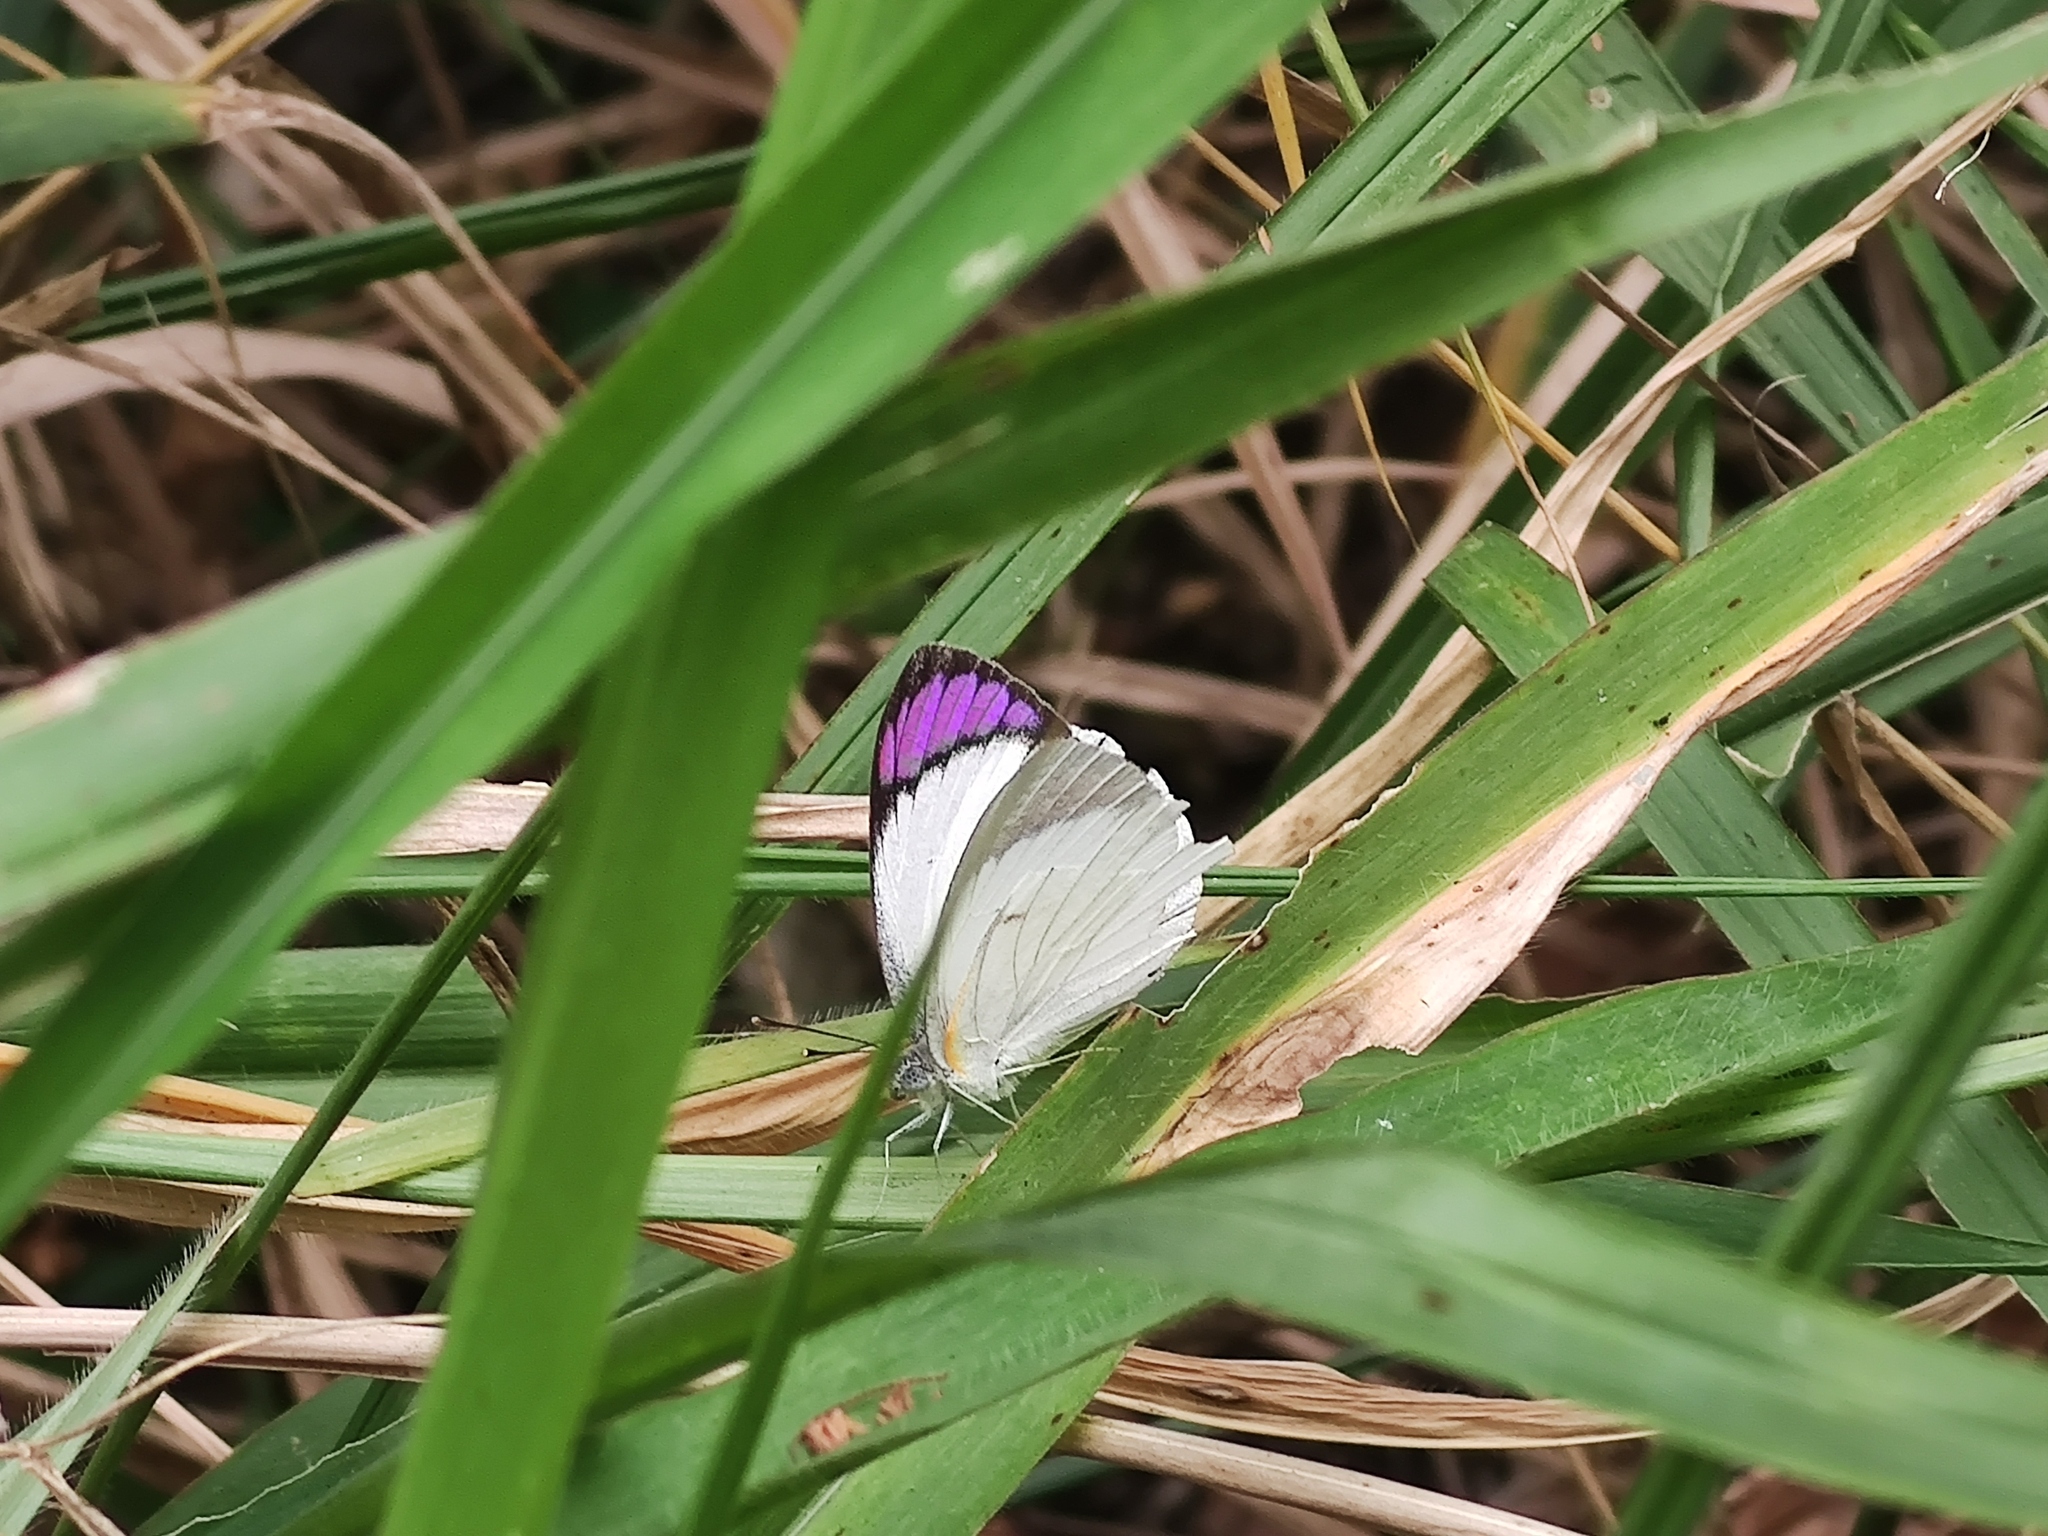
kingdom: Animalia
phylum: Arthropoda
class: Insecta
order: Lepidoptera
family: Pieridae
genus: Colotis
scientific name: Colotis ione
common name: Bushveld purple tip
